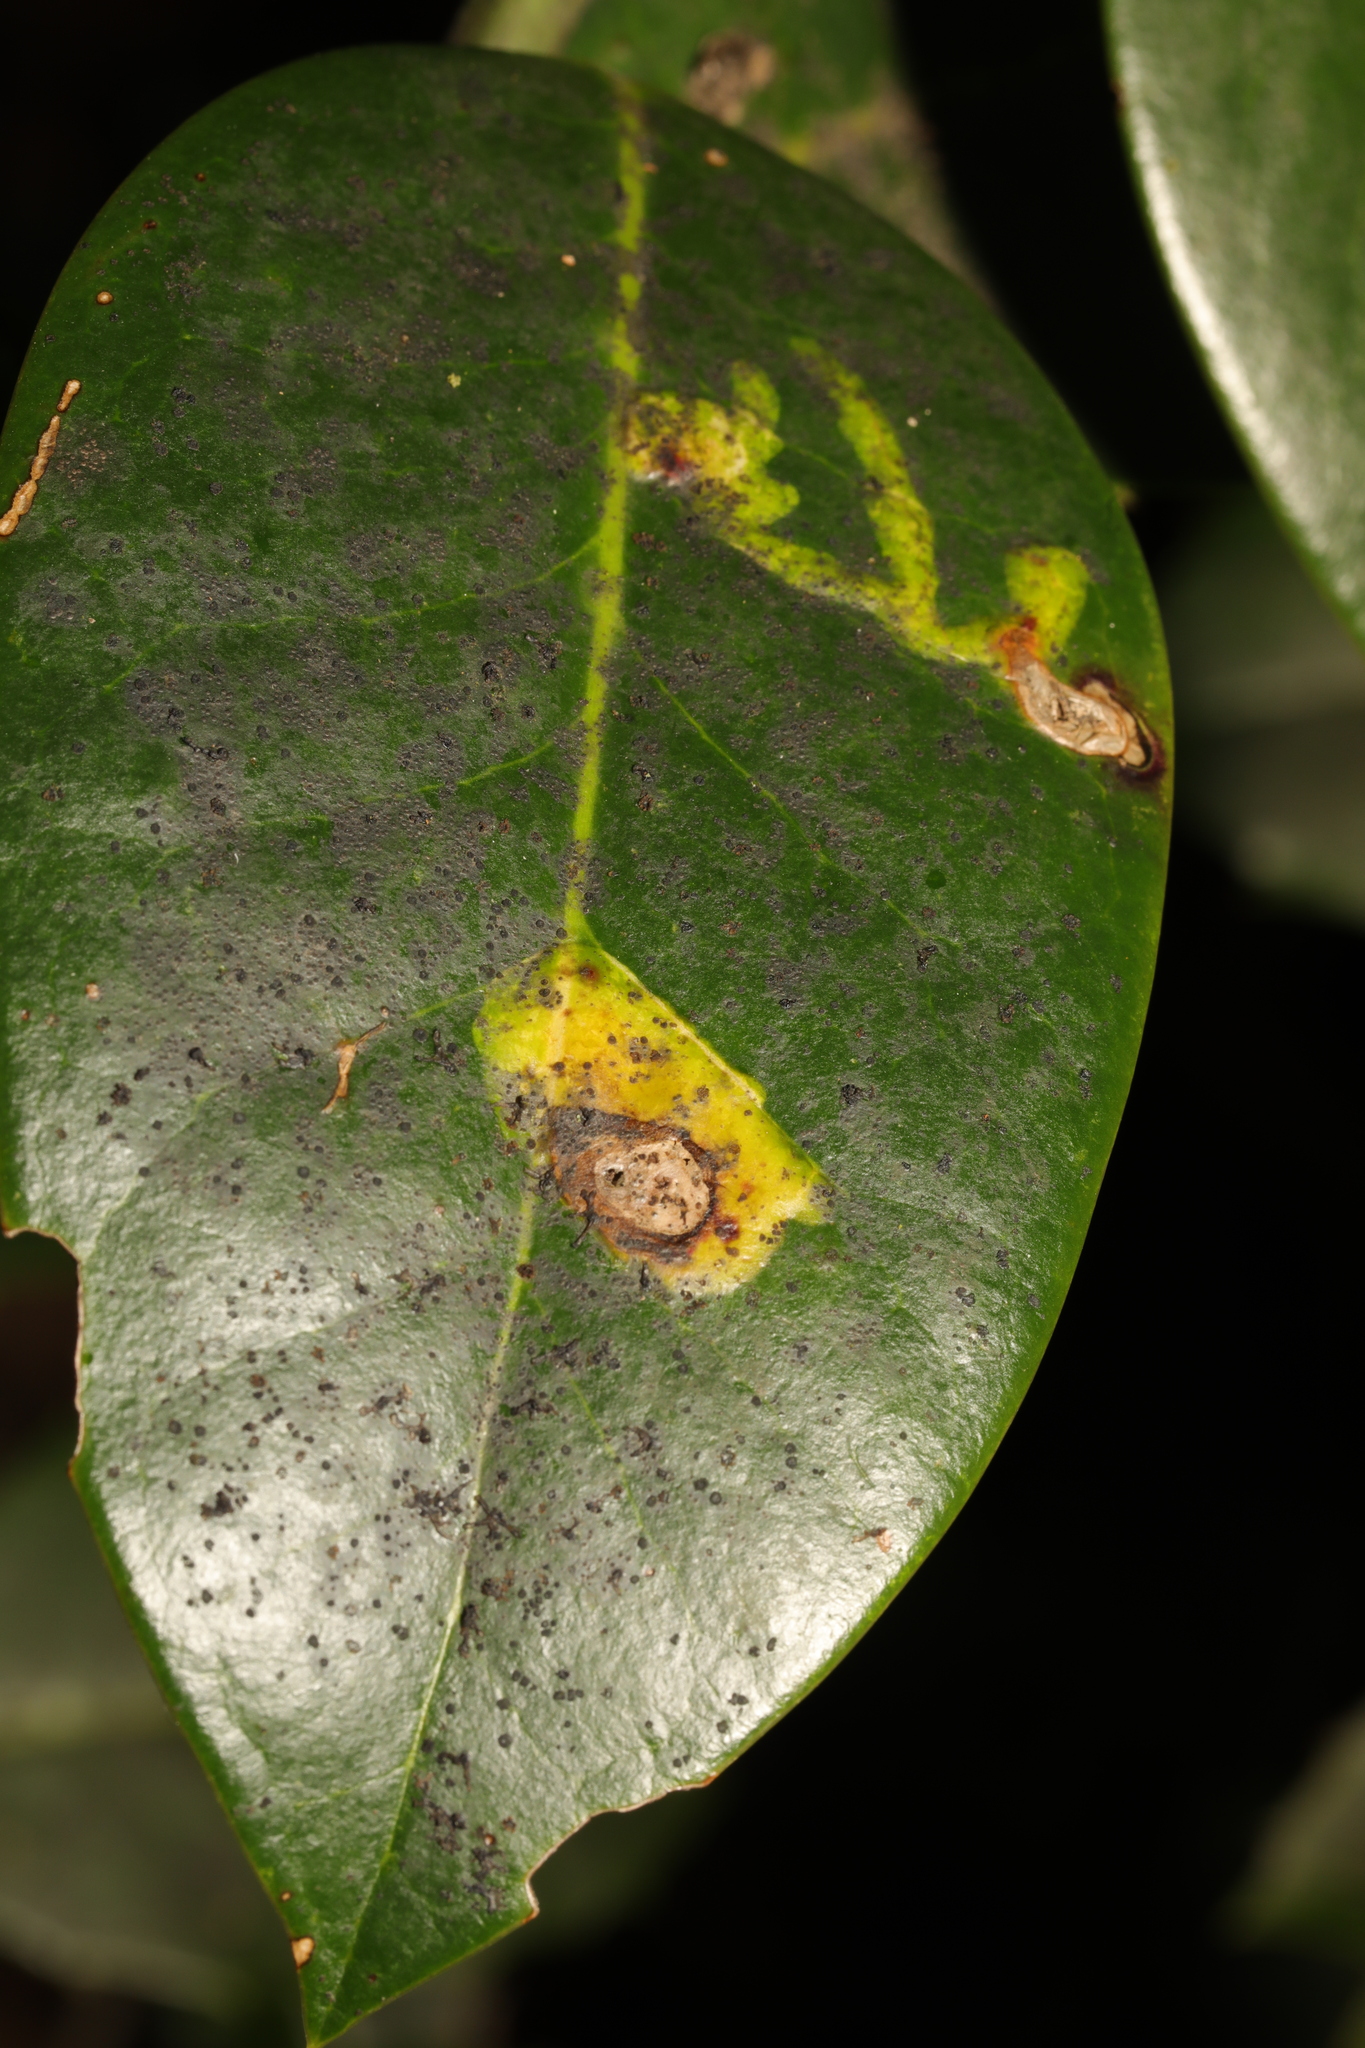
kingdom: Animalia
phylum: Arthropoda
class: Insecta
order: Diptera
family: Agromyzidae
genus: Phytomyza
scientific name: Phytomyza ilicis
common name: Holly leafminer
